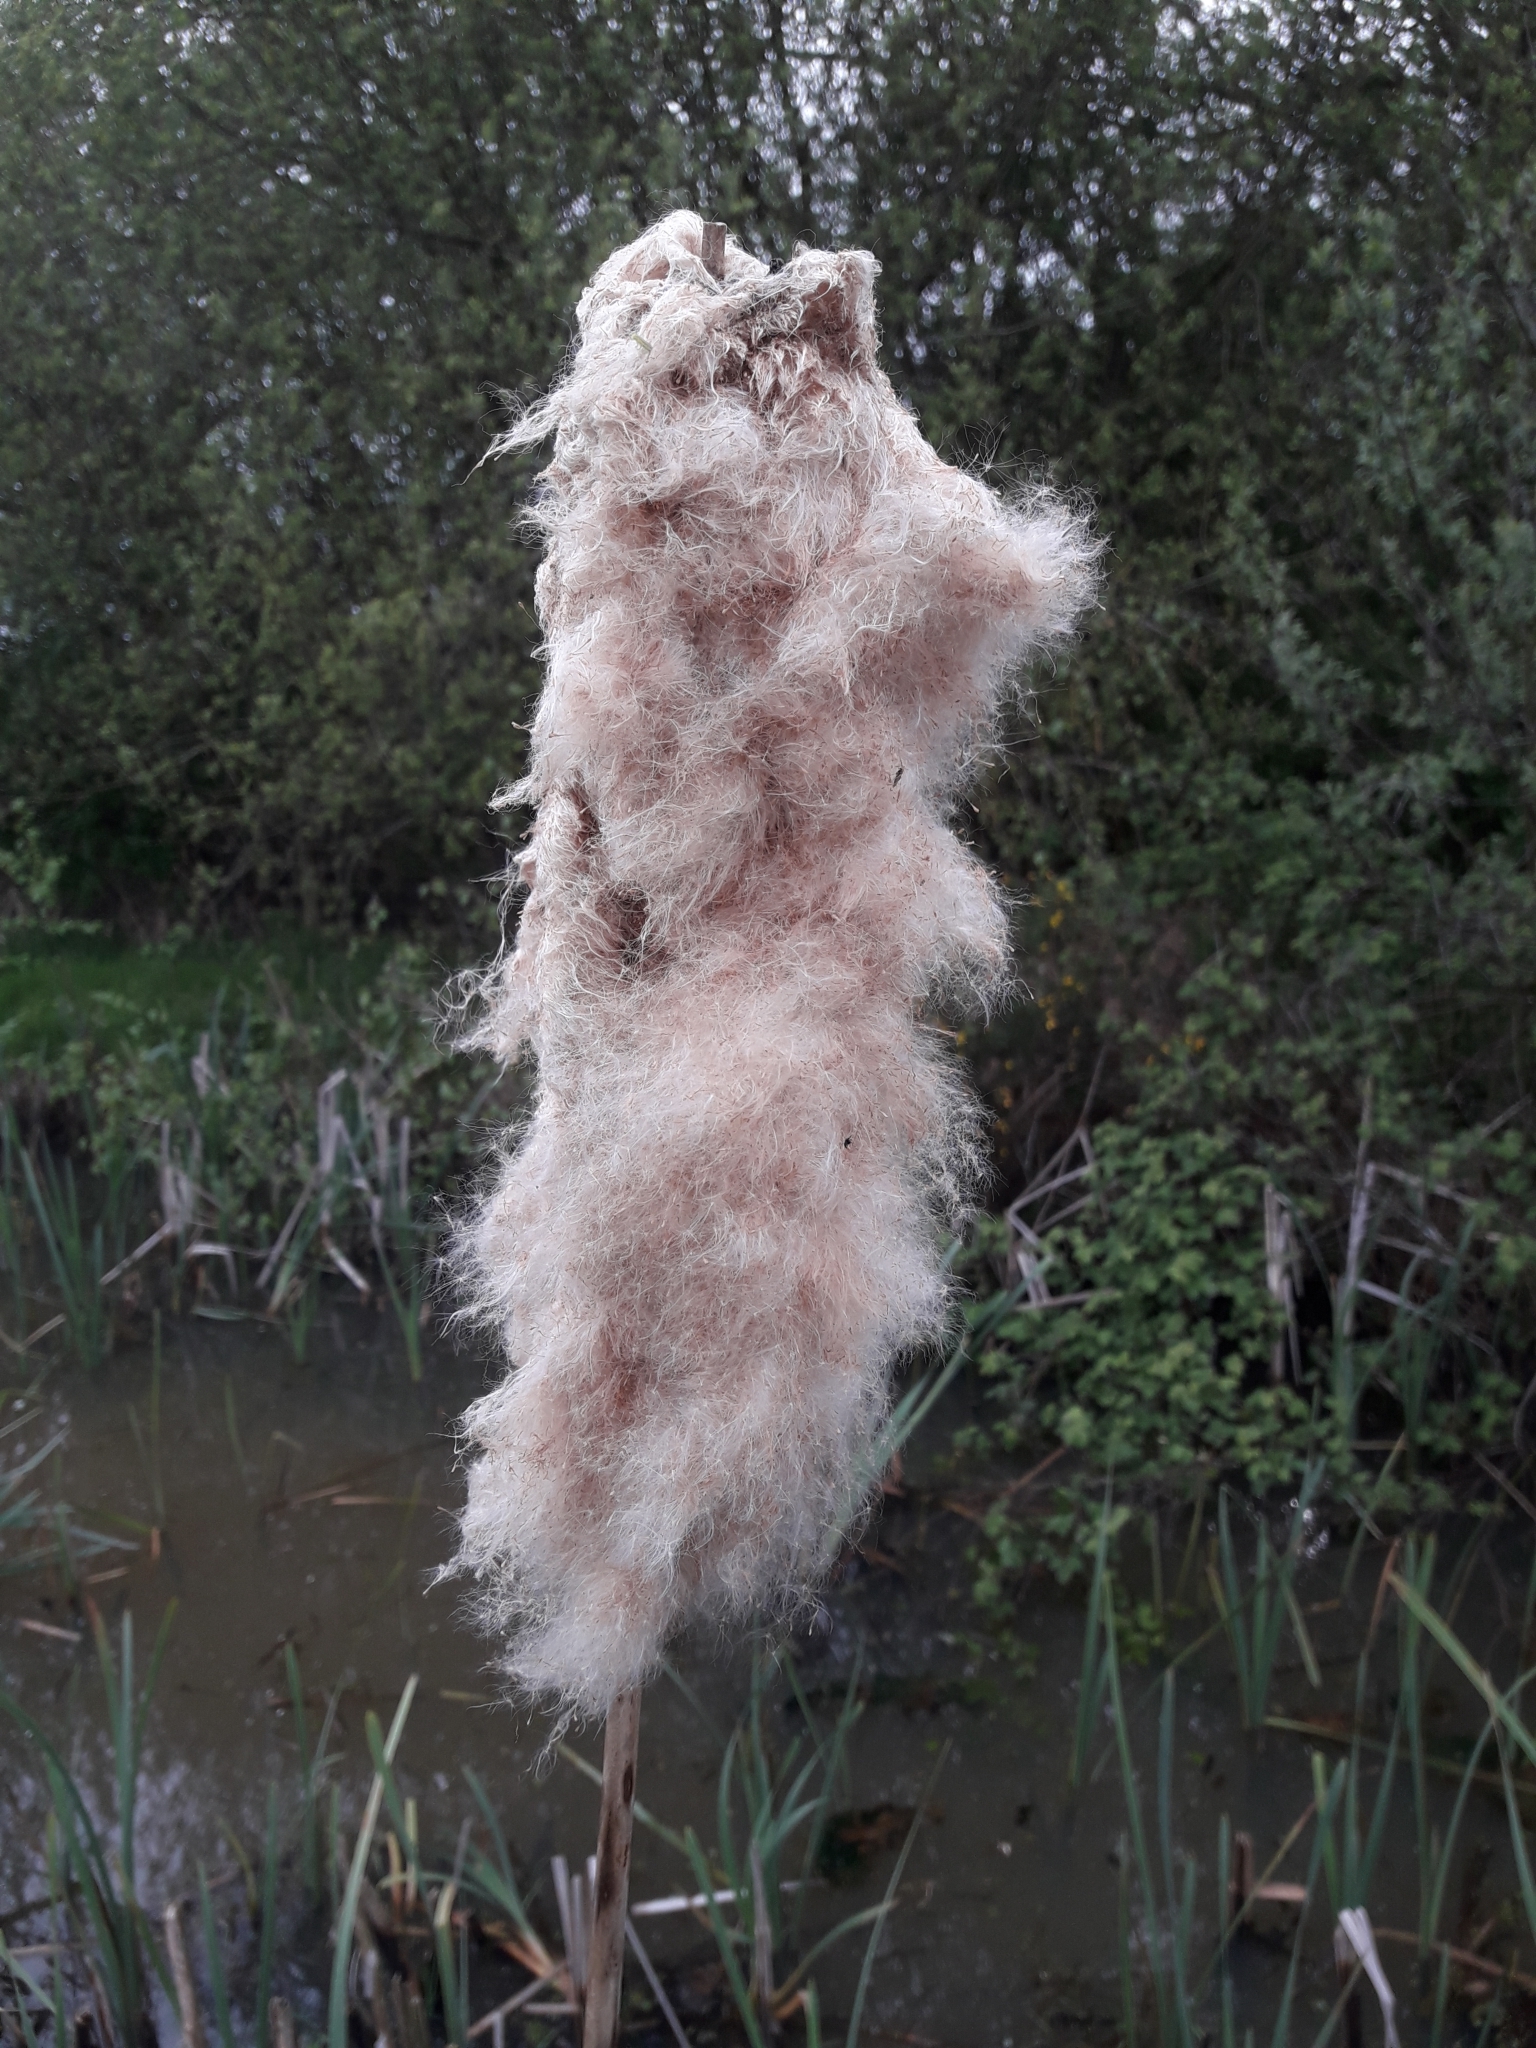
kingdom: Plantae
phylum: Tracheophyta
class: Liliopsida
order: Poales
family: Typhaceae
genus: Typha
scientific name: Typha latifolia
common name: Broadleaf cattail
